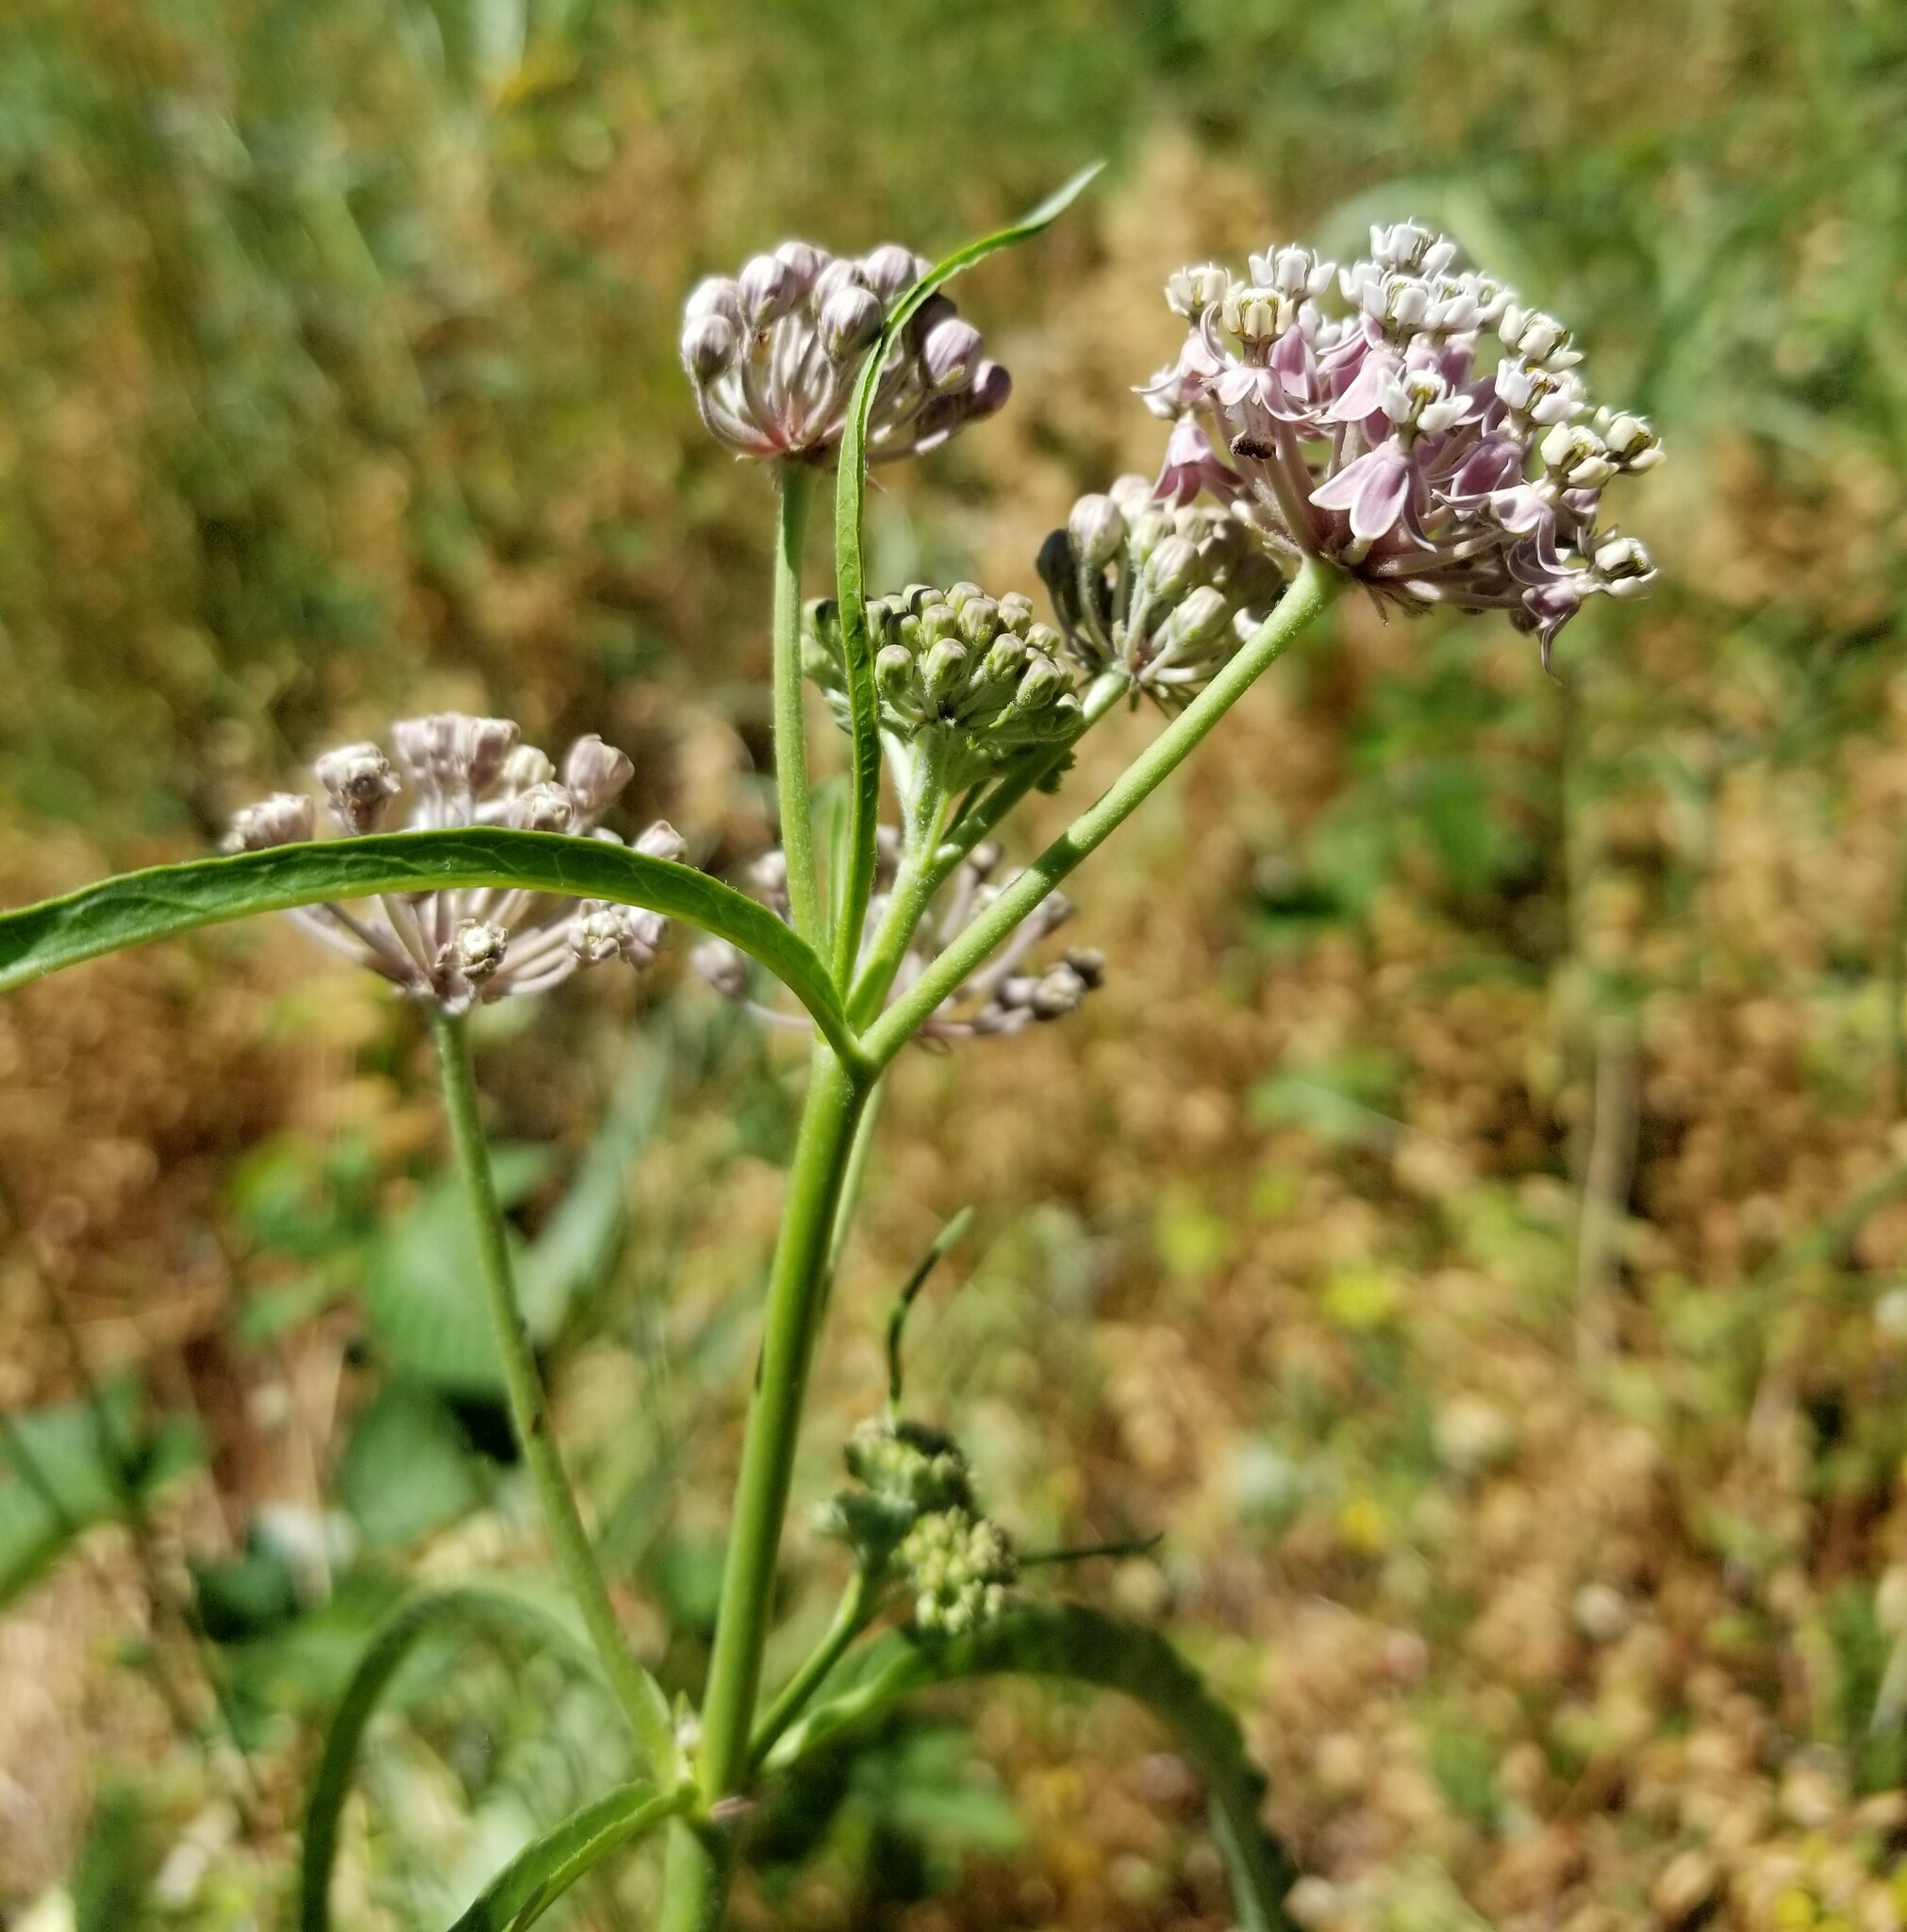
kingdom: Plantae
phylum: Tracheophyta
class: Magnoliopsida
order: Gentianales
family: Apocynaceae
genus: Asclepias
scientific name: Asclepias fascicularis
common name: Mexican milkweed
